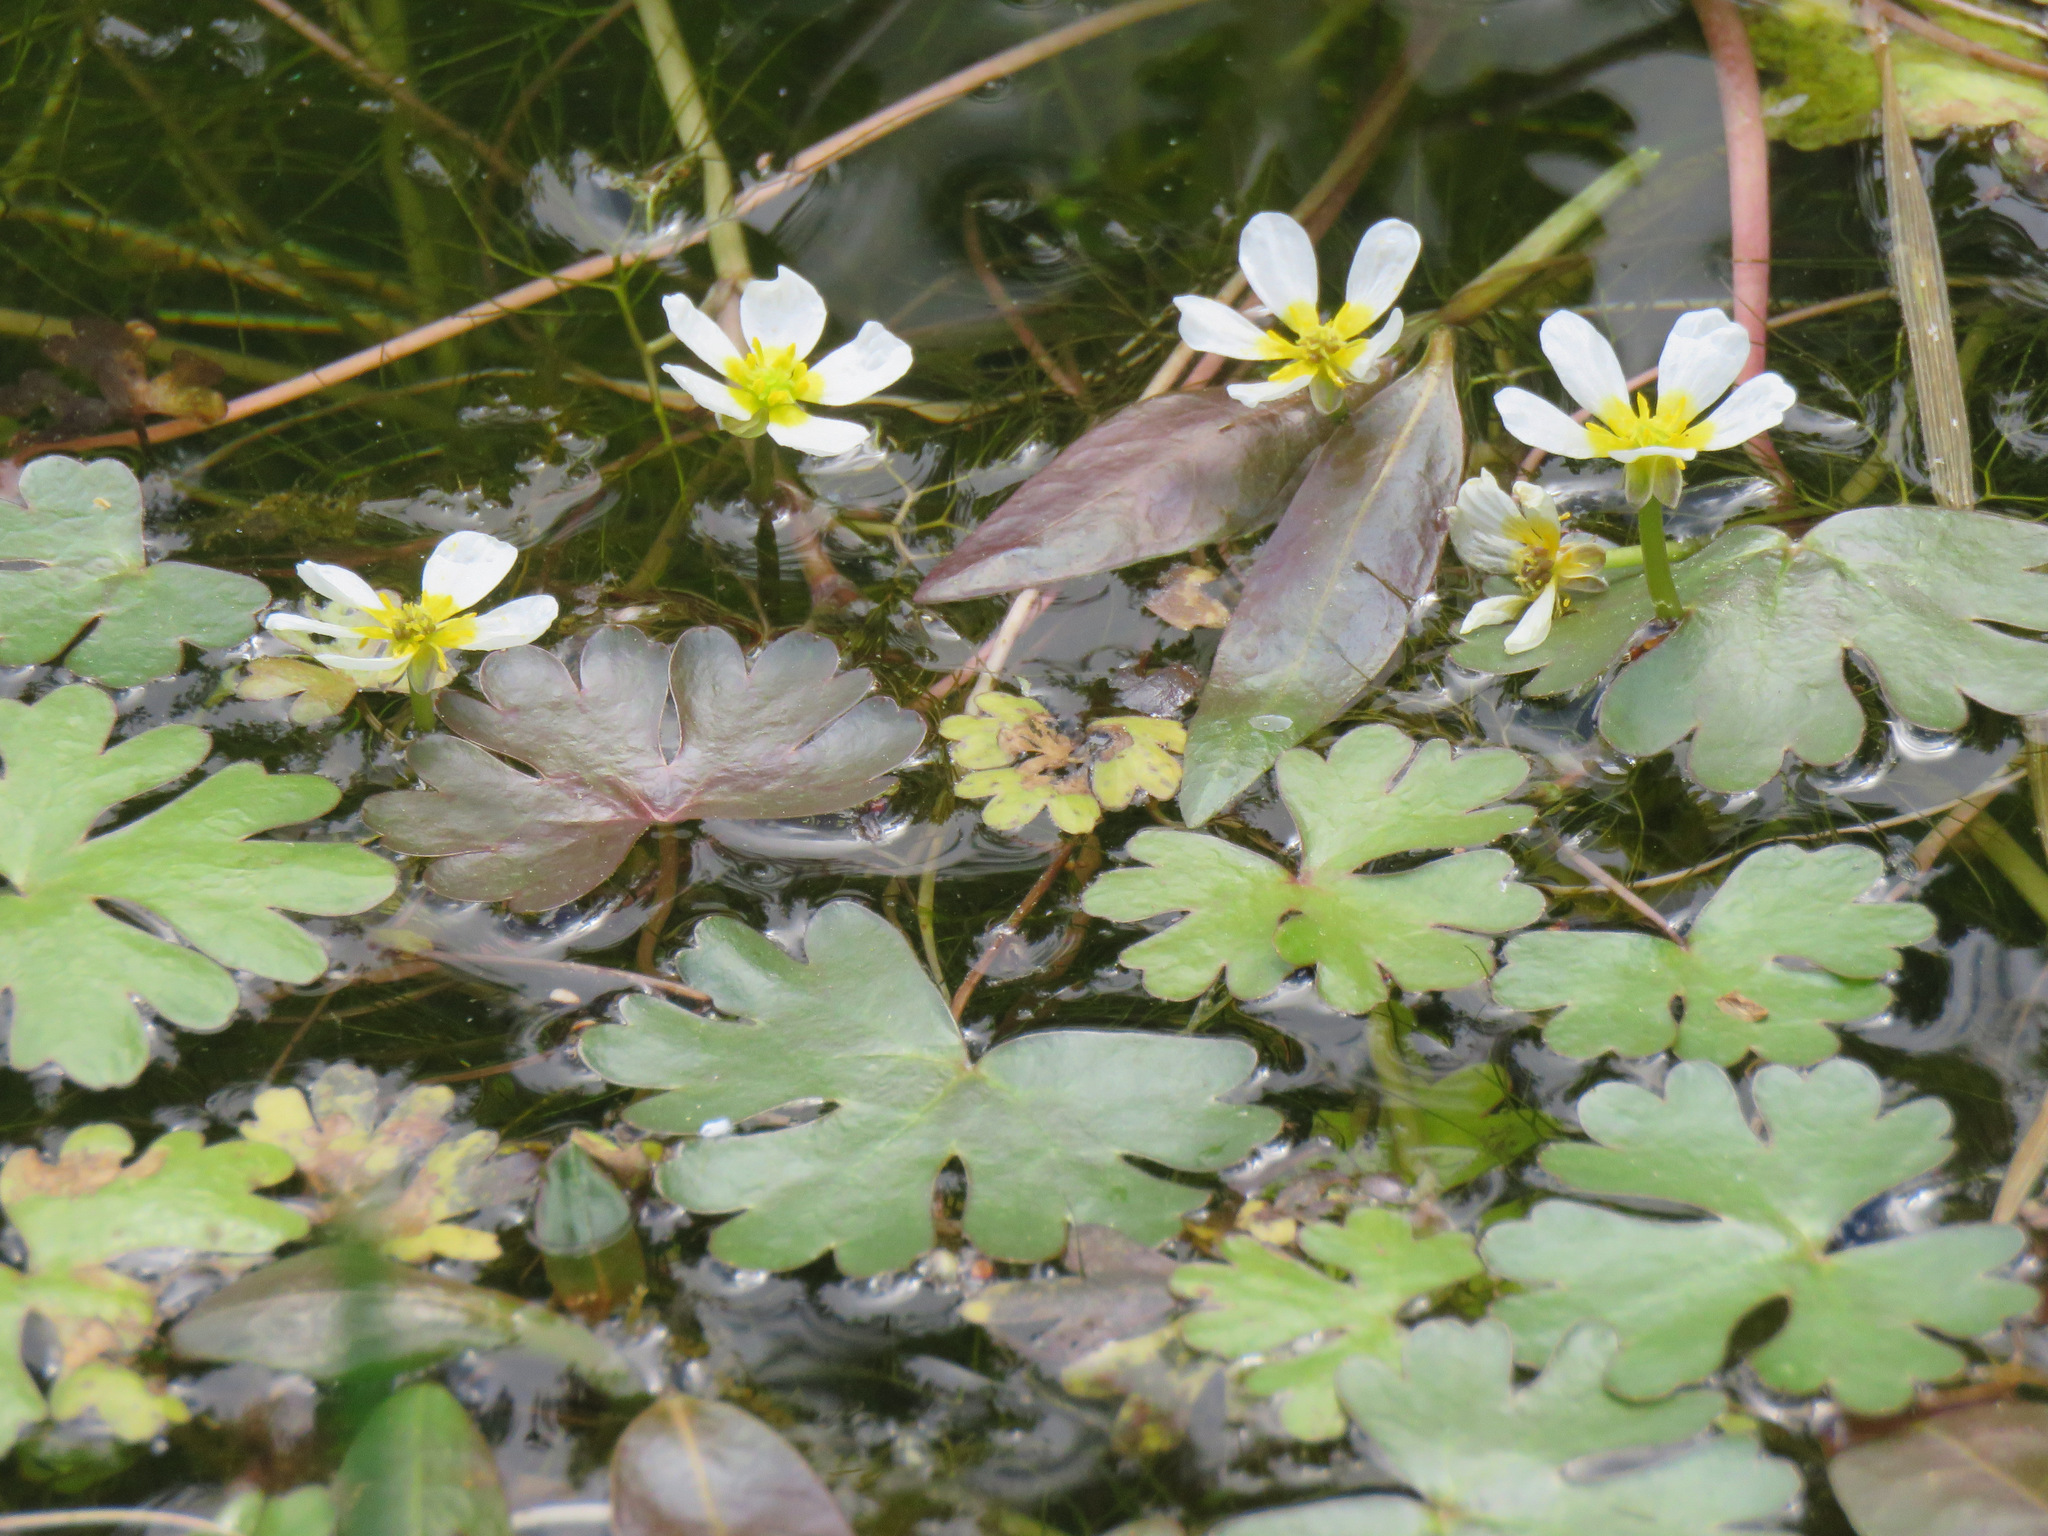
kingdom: Plantae
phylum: Tracheophyta
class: Magnoliopsida
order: Ranunculales
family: Ranunculaceae
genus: Ranunculus
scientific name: Ranunculus aquatilis
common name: Common water-crowfoot
